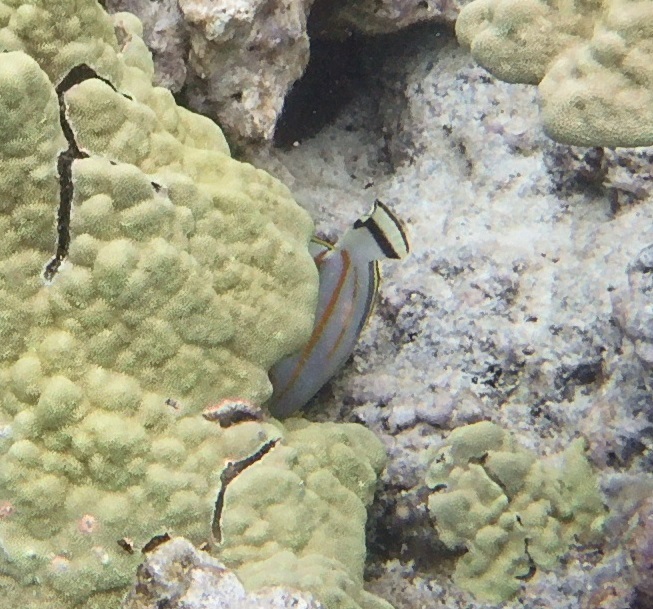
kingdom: Animalia
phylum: Chordata
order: Perciformes
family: Chaetodontidae
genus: Chaetodon
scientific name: Chaetodon ornatissimus
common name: Ornate butterflyfish
